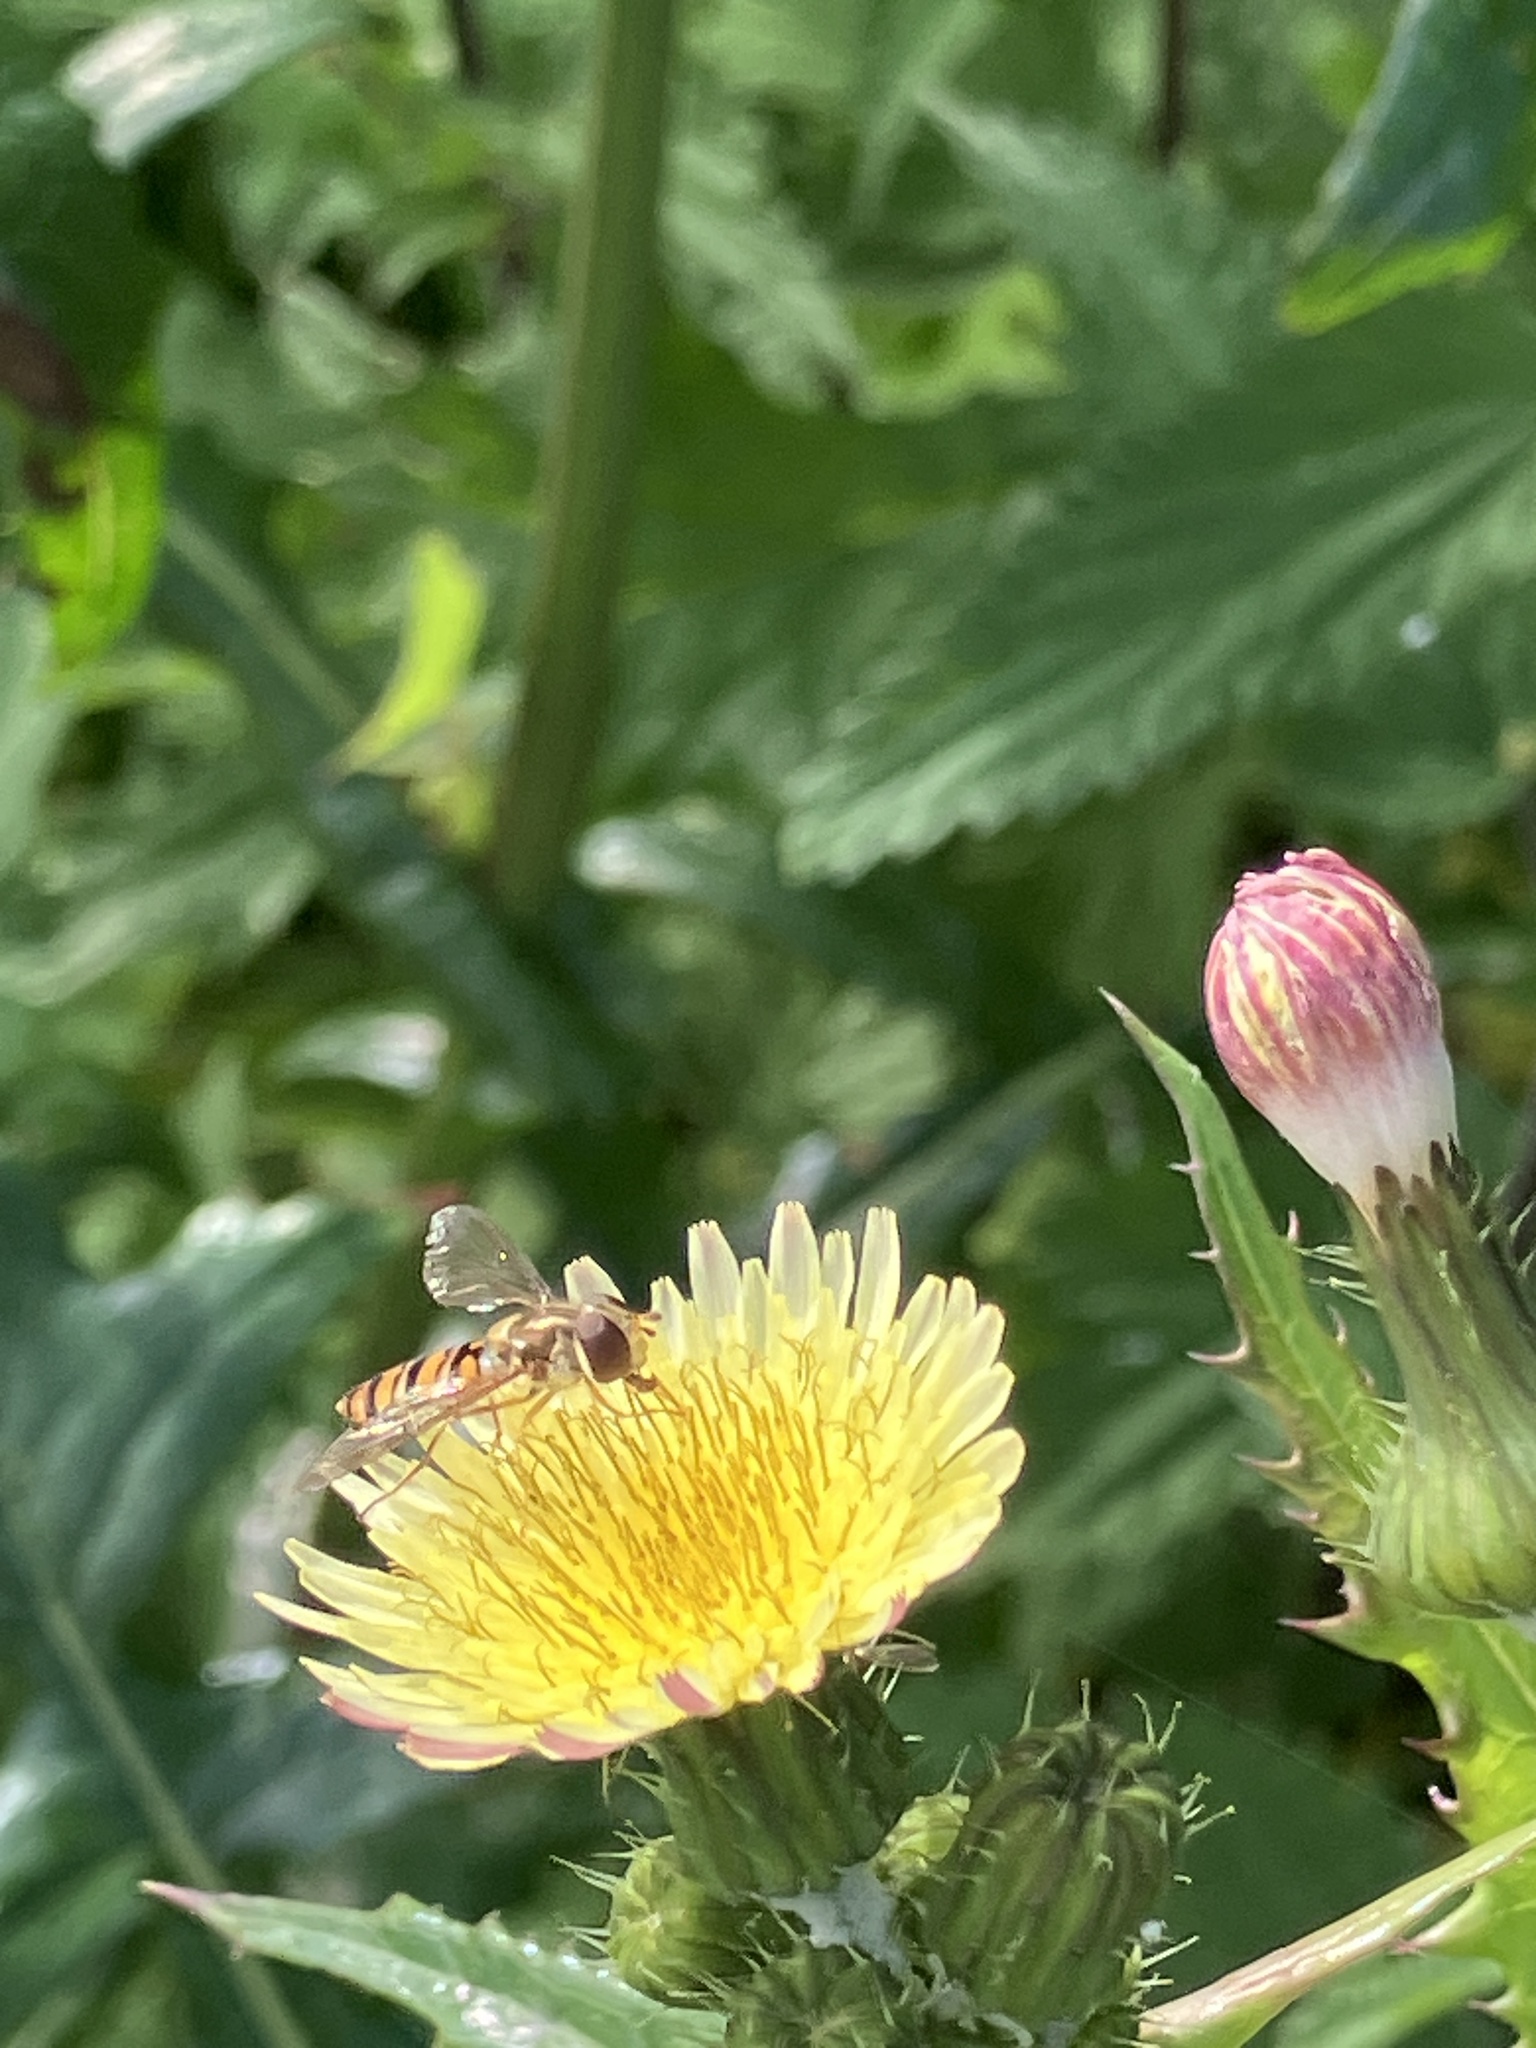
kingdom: Animalia
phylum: Arthropoda
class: Insecta
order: Diptera
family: Syrphidae
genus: Episyrphus
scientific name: Episyrphus balteatus
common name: Marmalade hoverfly
